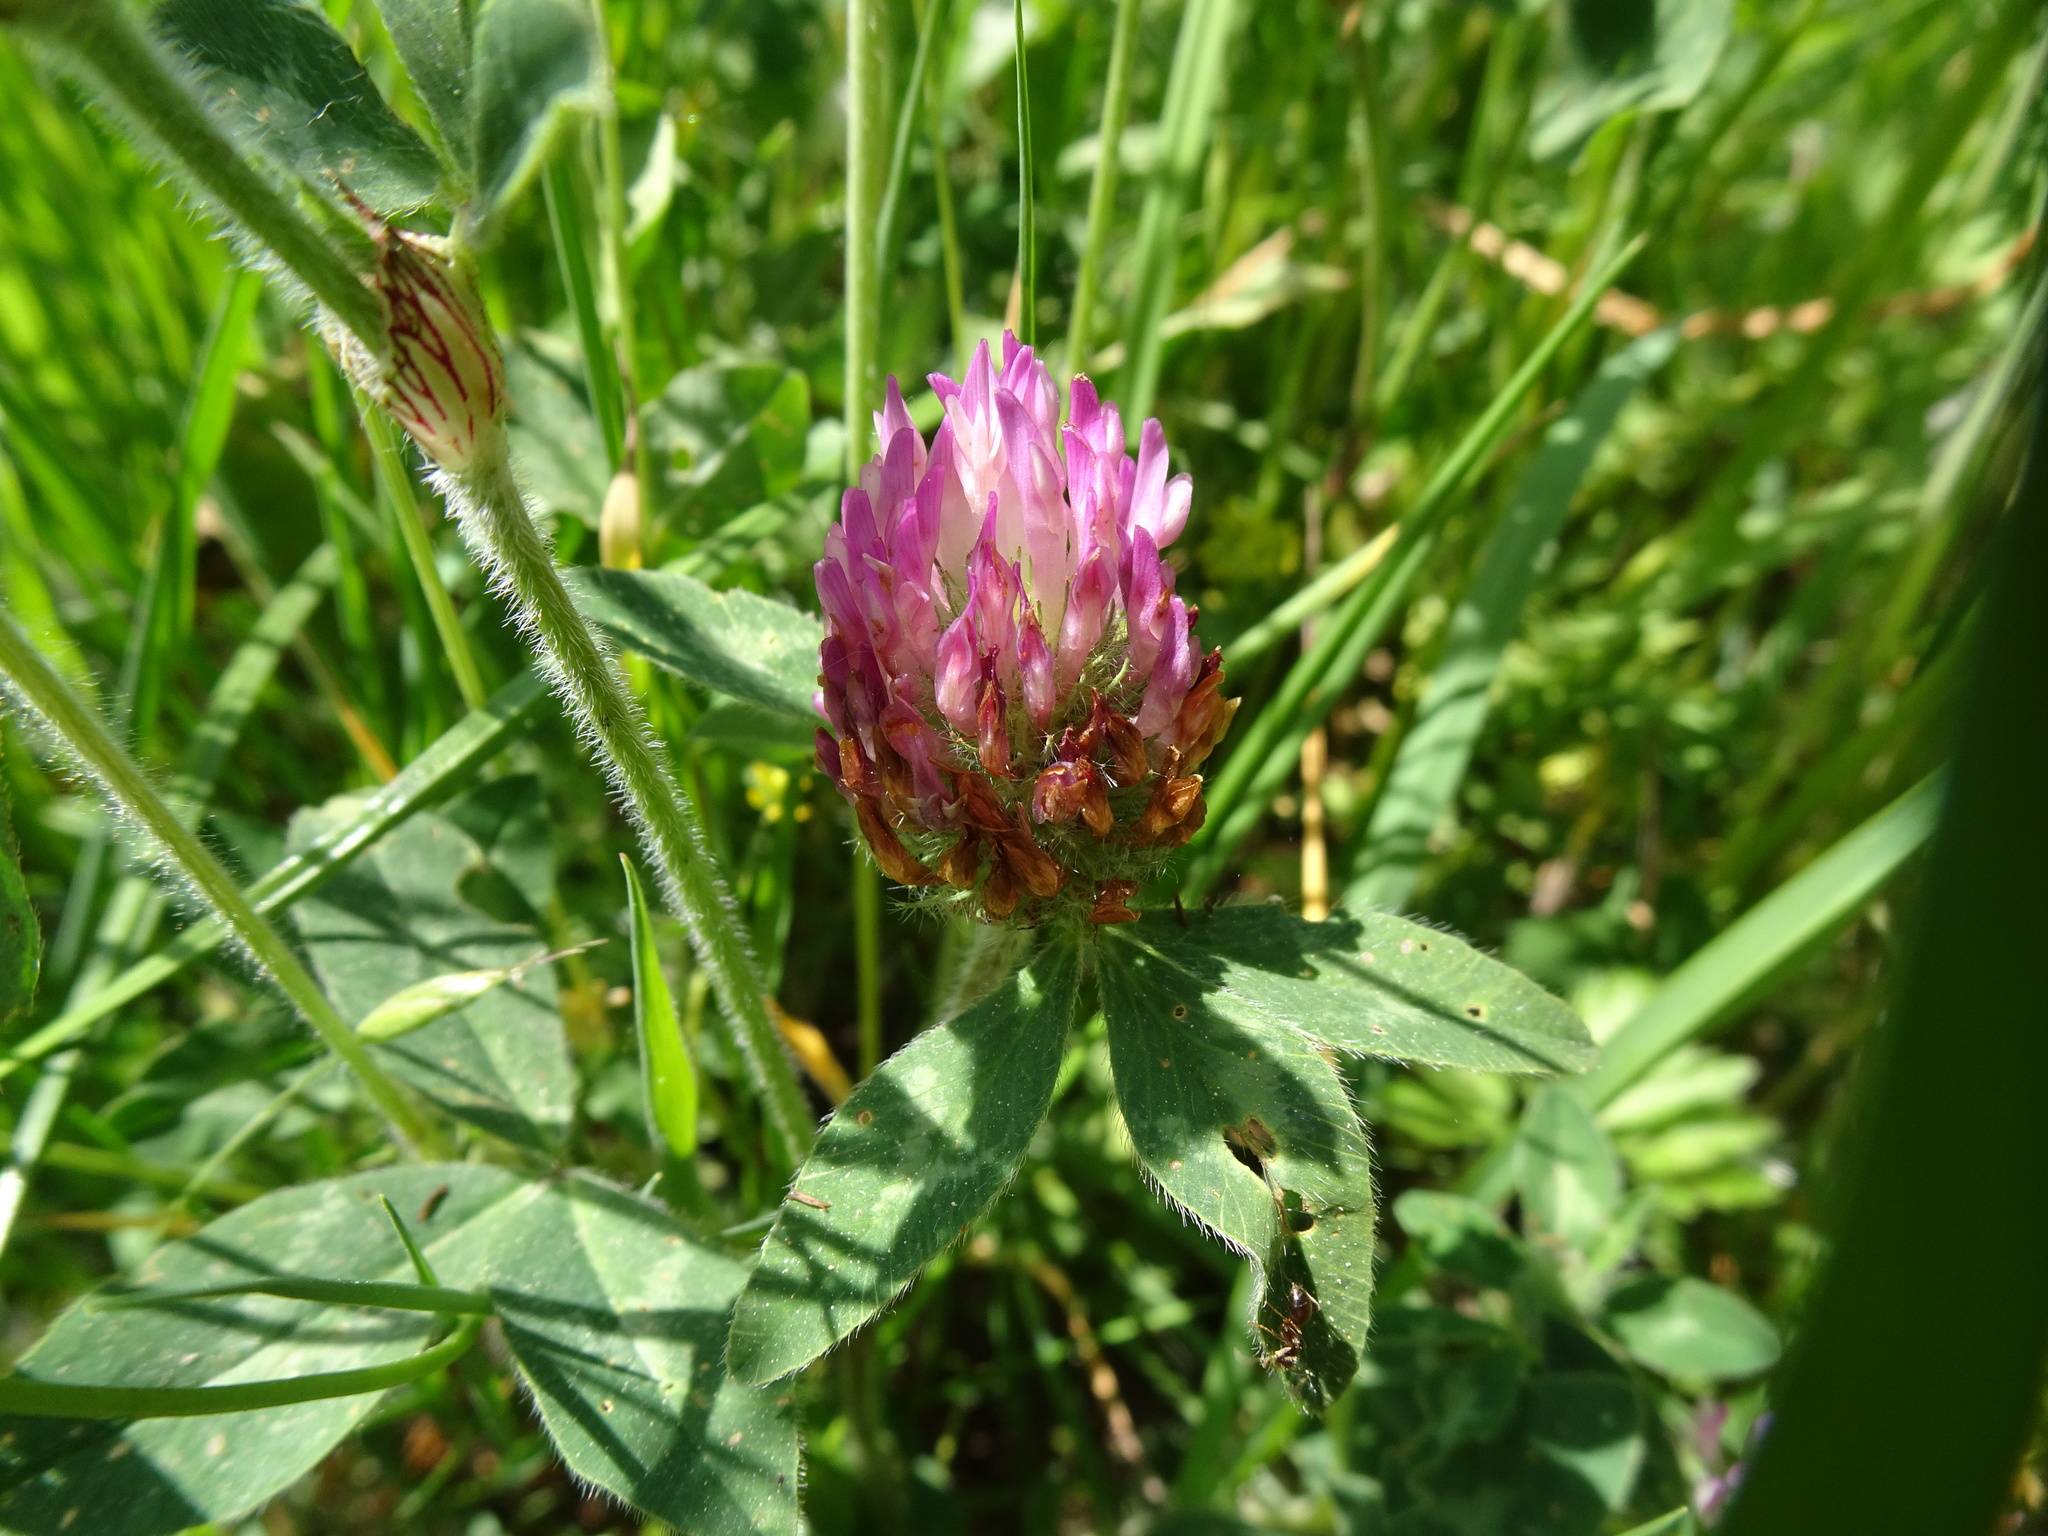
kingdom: Plantae
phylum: Tracheophyta
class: Magnoliopsida
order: Fabales
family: Fabaceae
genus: Trifolium
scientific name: Trifolium pratense
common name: Red clover
